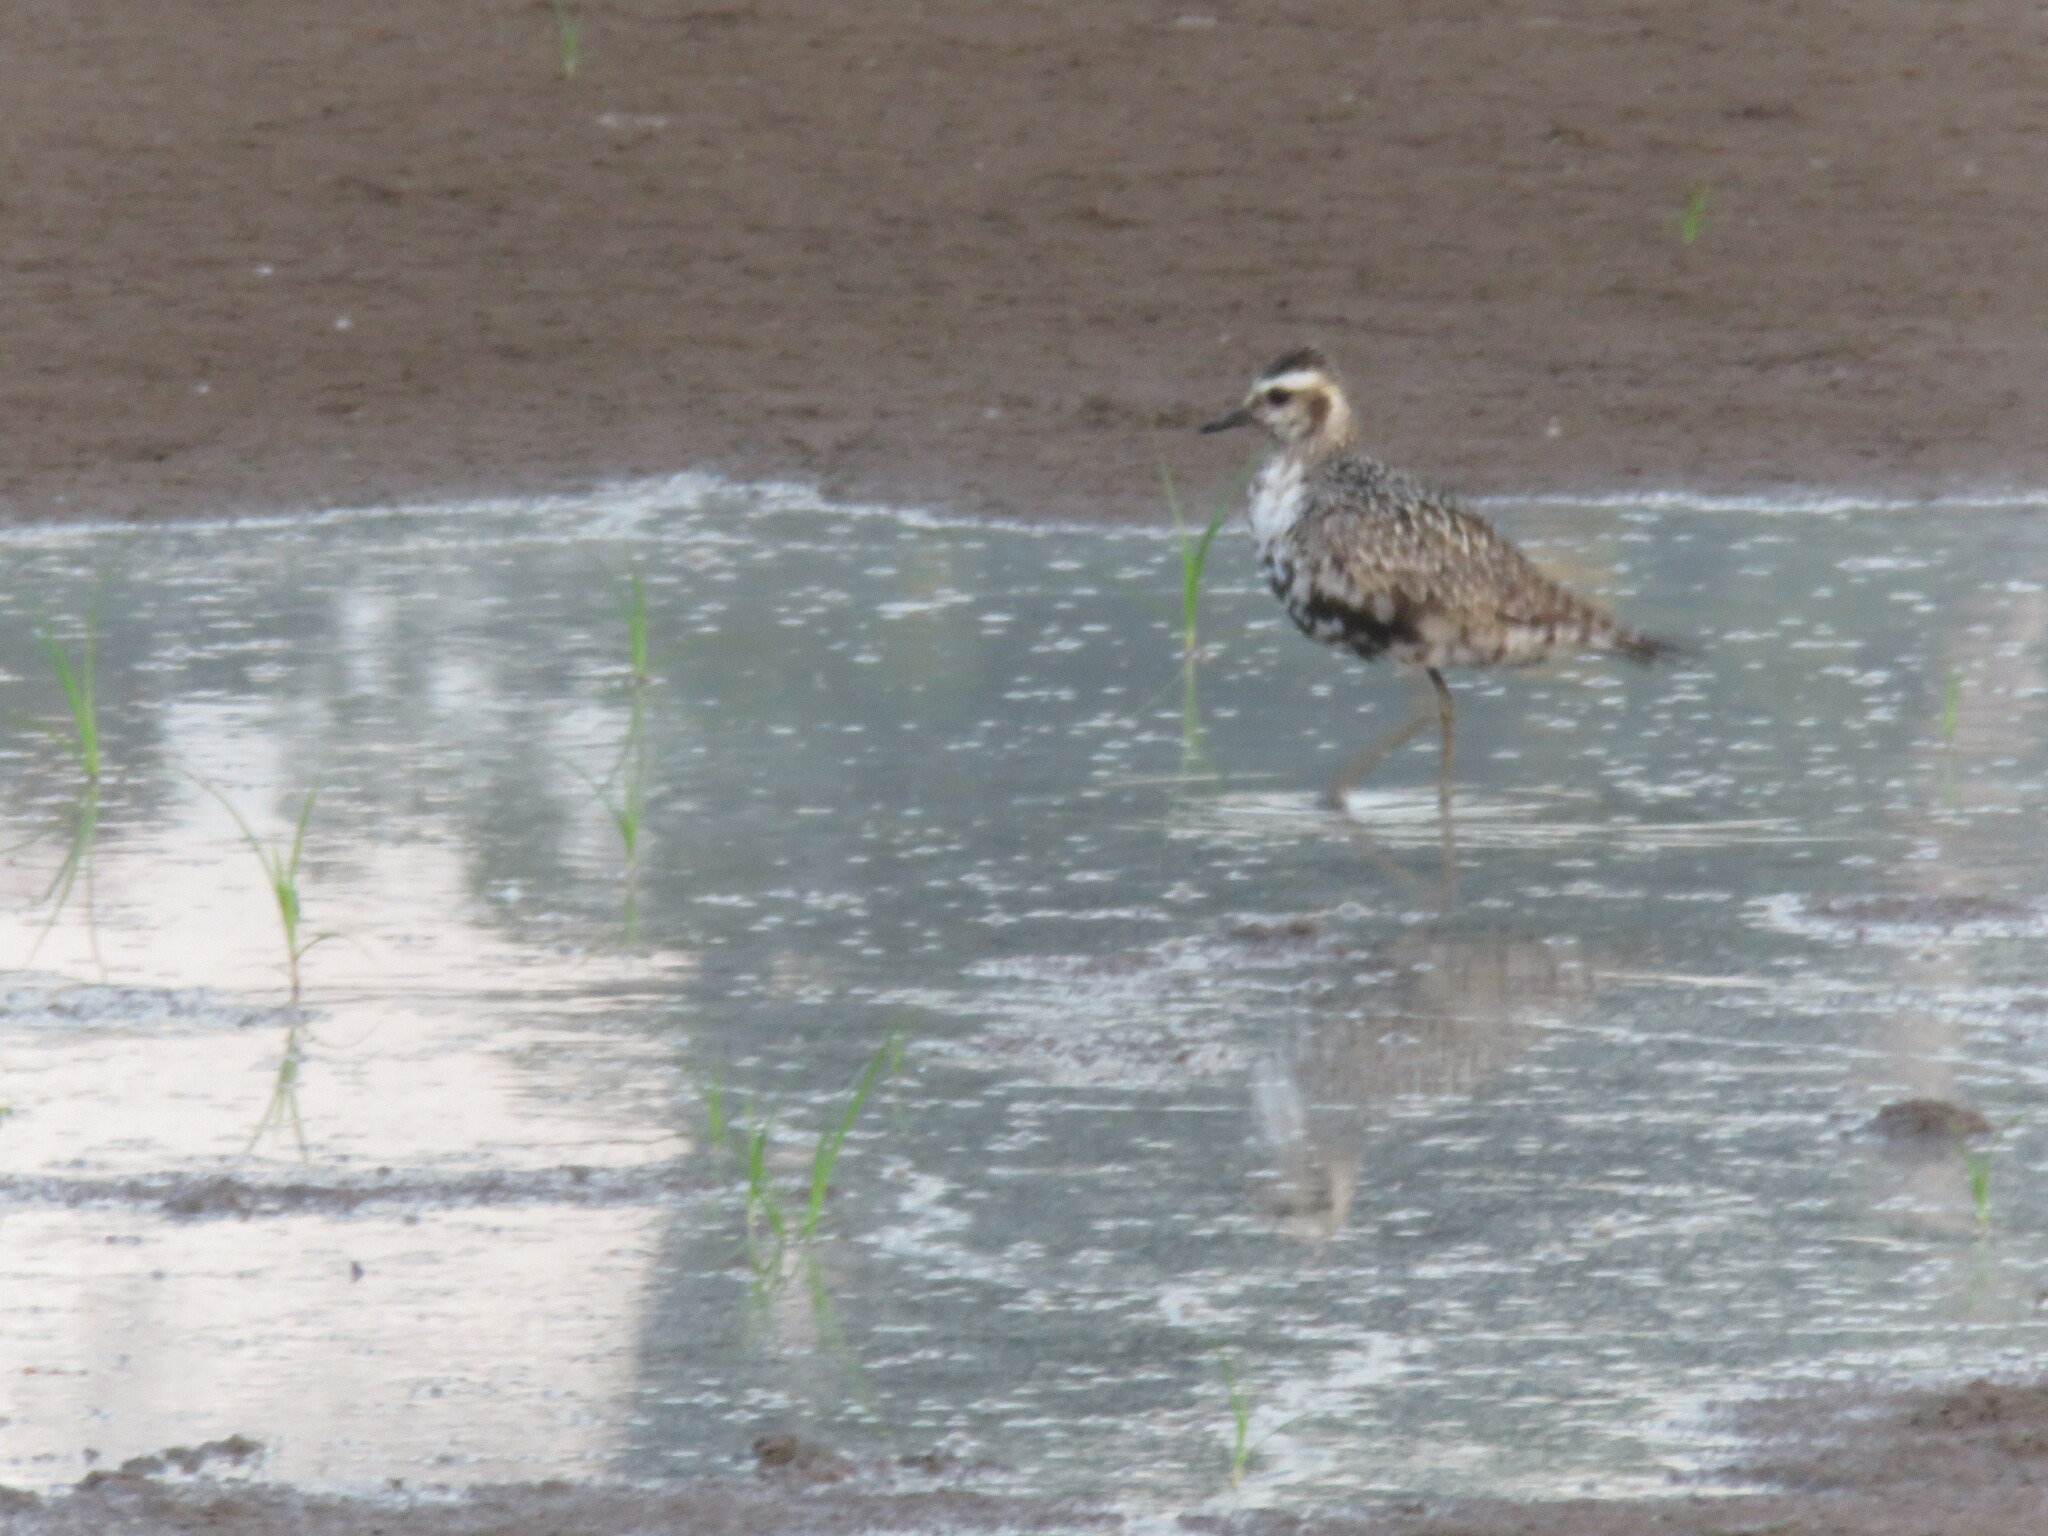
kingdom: Animalia
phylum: Chordata
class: Aves
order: Charadriiformes
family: Charadriidae
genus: Pluvialis
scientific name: Pluvialis dominica
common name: American golden plover
